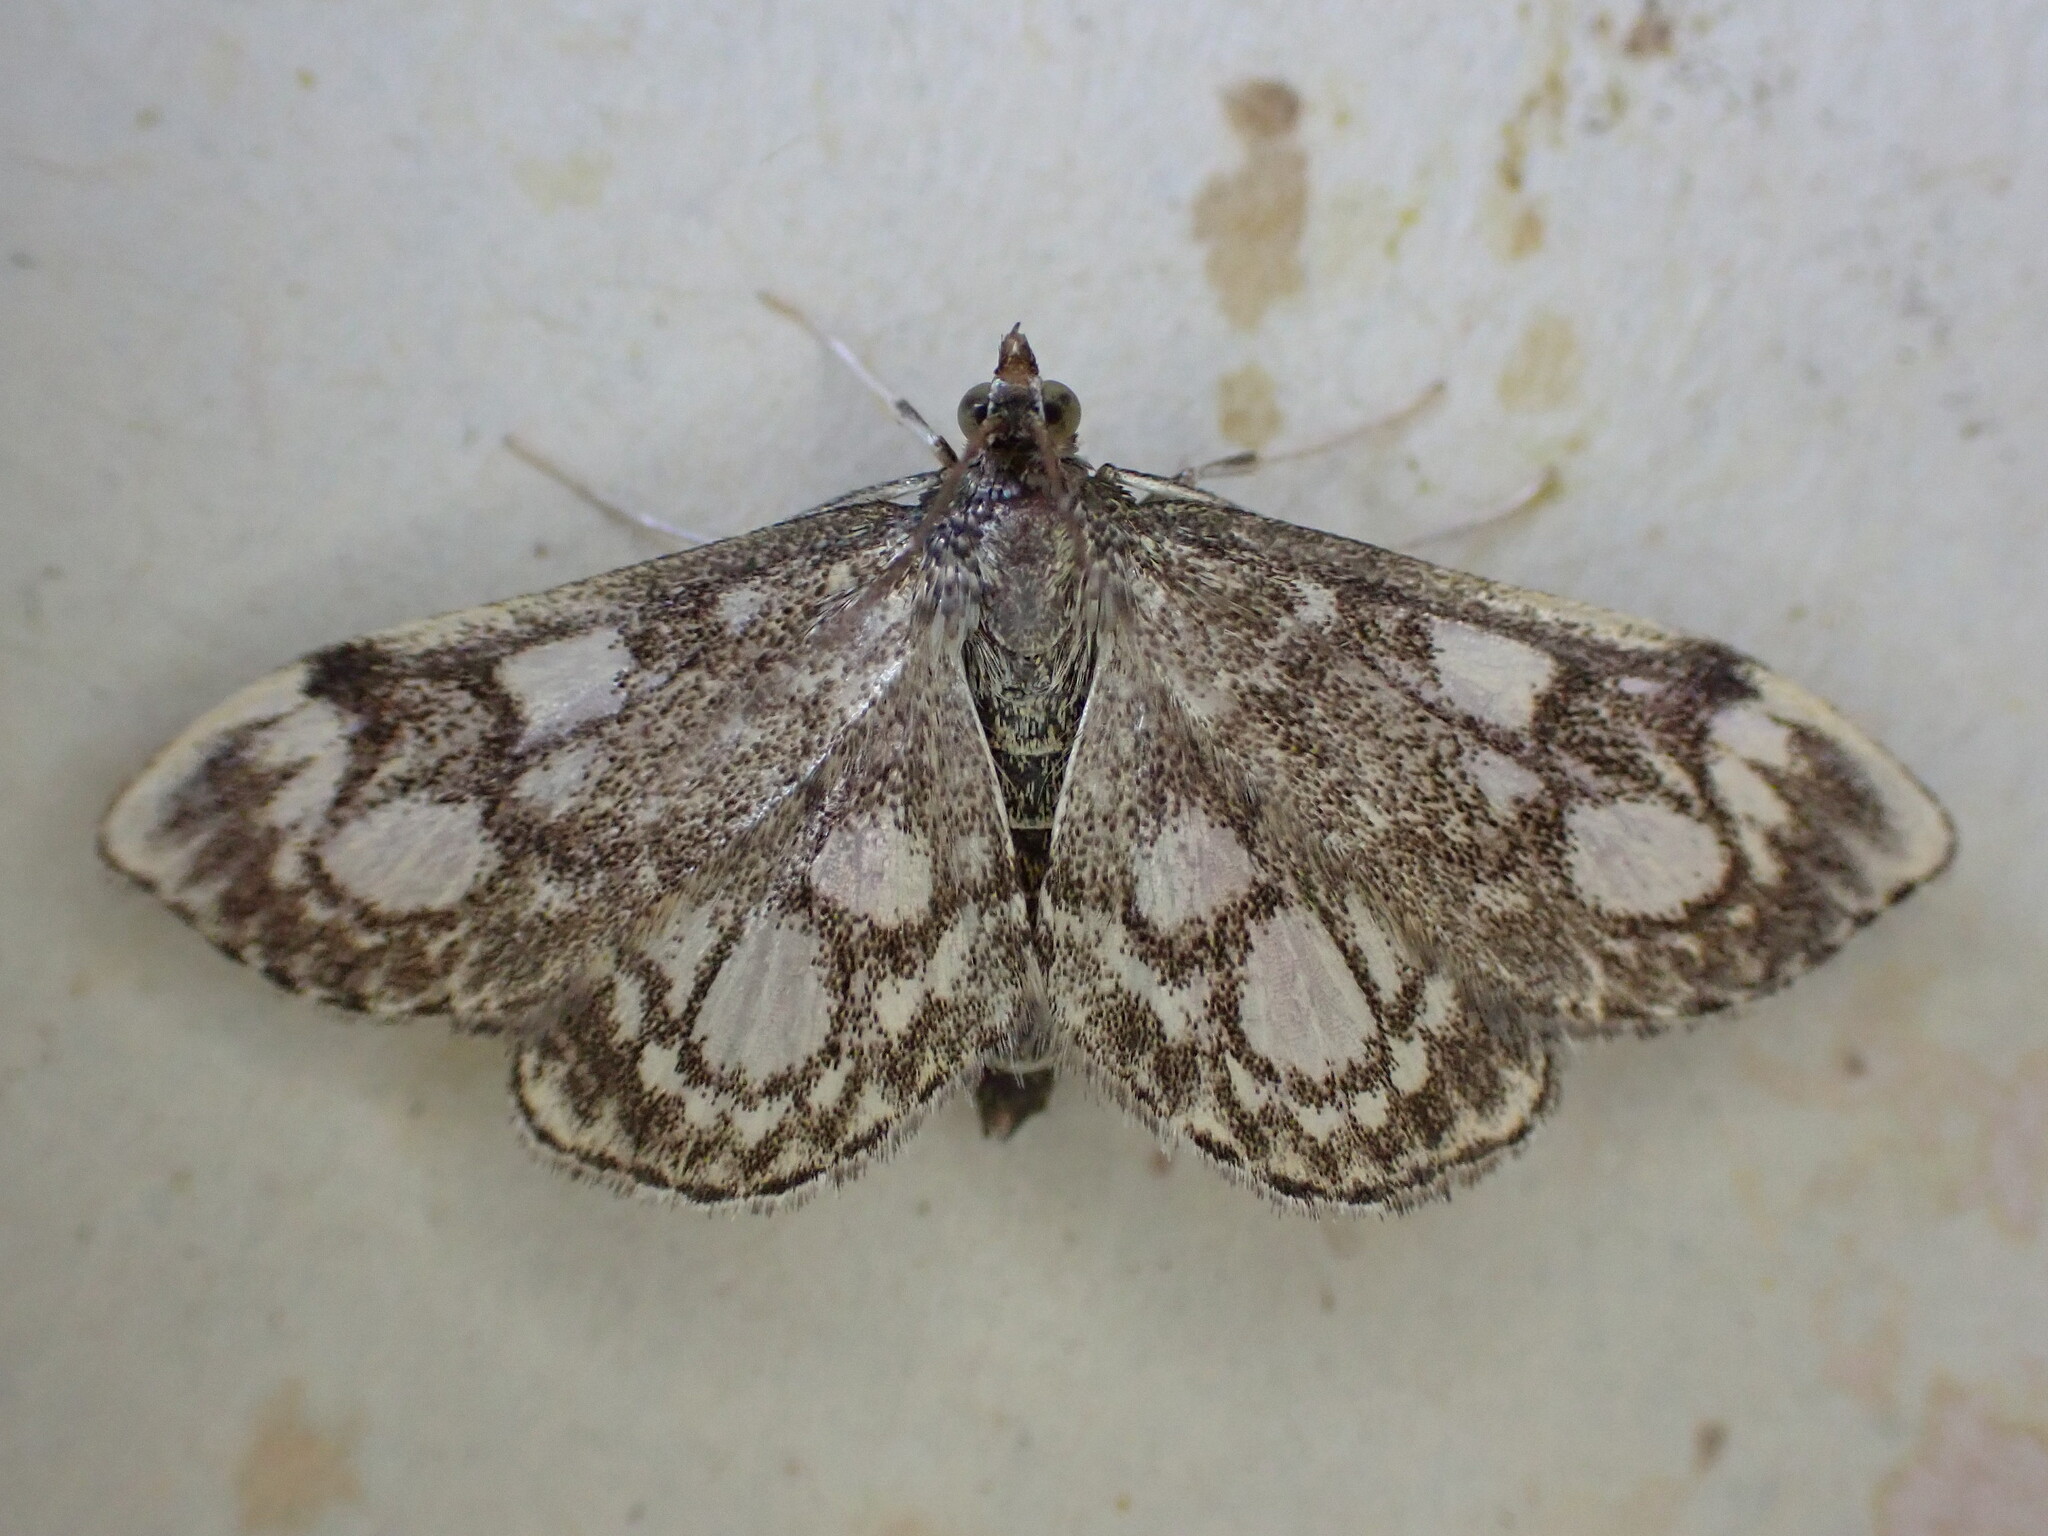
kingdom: Animalia
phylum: Arthropoda
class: Insecta
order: Lepidoptera
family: Crambidae
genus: Anania
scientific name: Anania coronata
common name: Elder pearl
